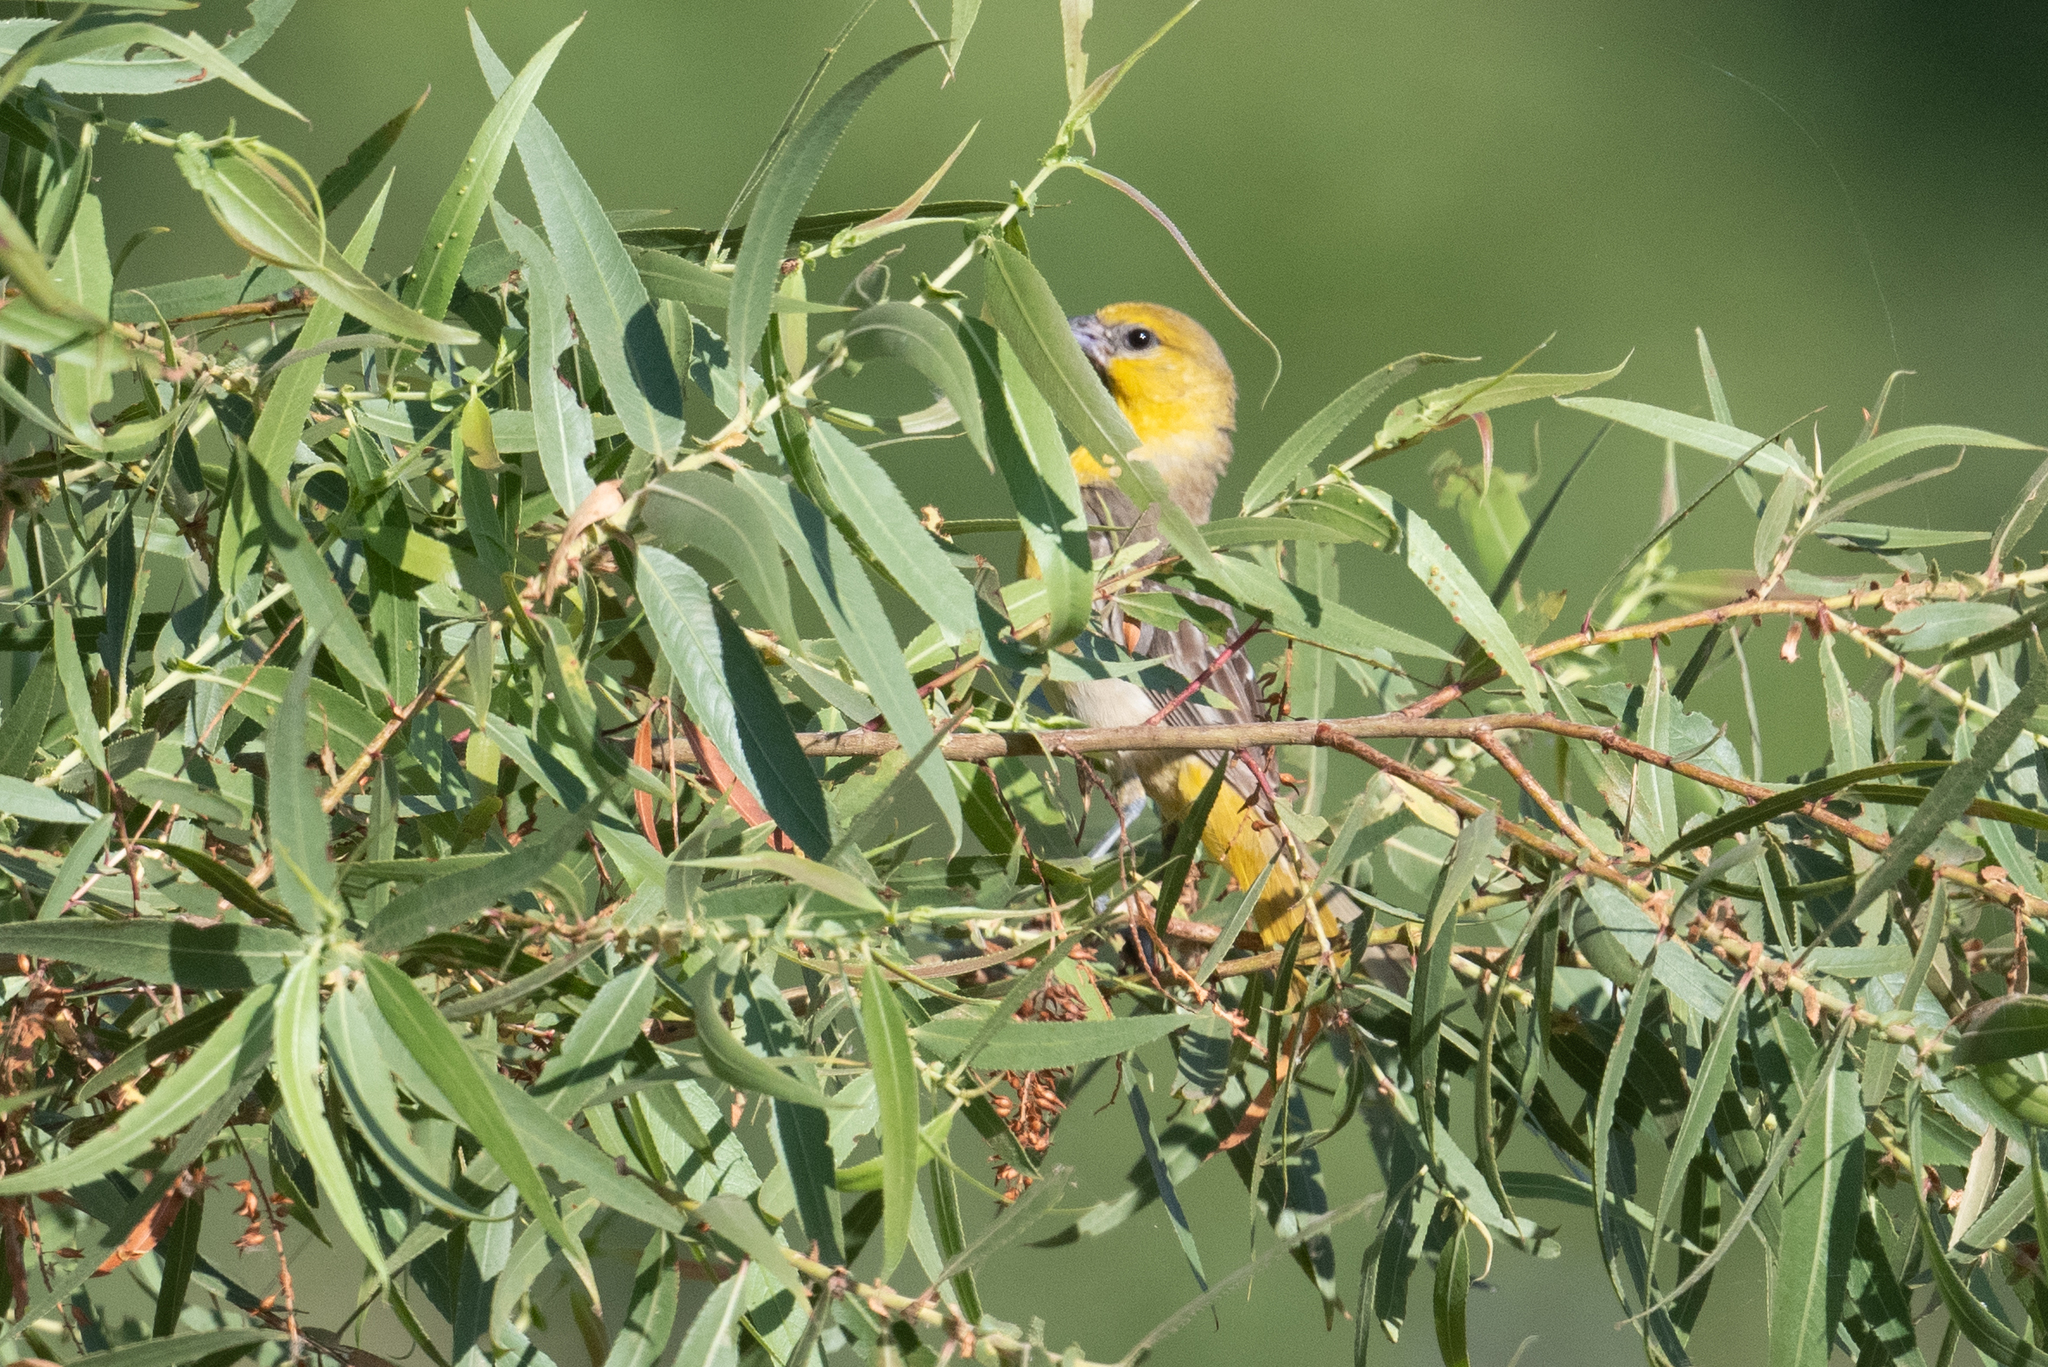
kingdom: Animalia
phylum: Chordata
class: Aves
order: Passeriformes
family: Icteridae
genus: Icterus
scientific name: Icterus bullockii
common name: Bullock's oriole
